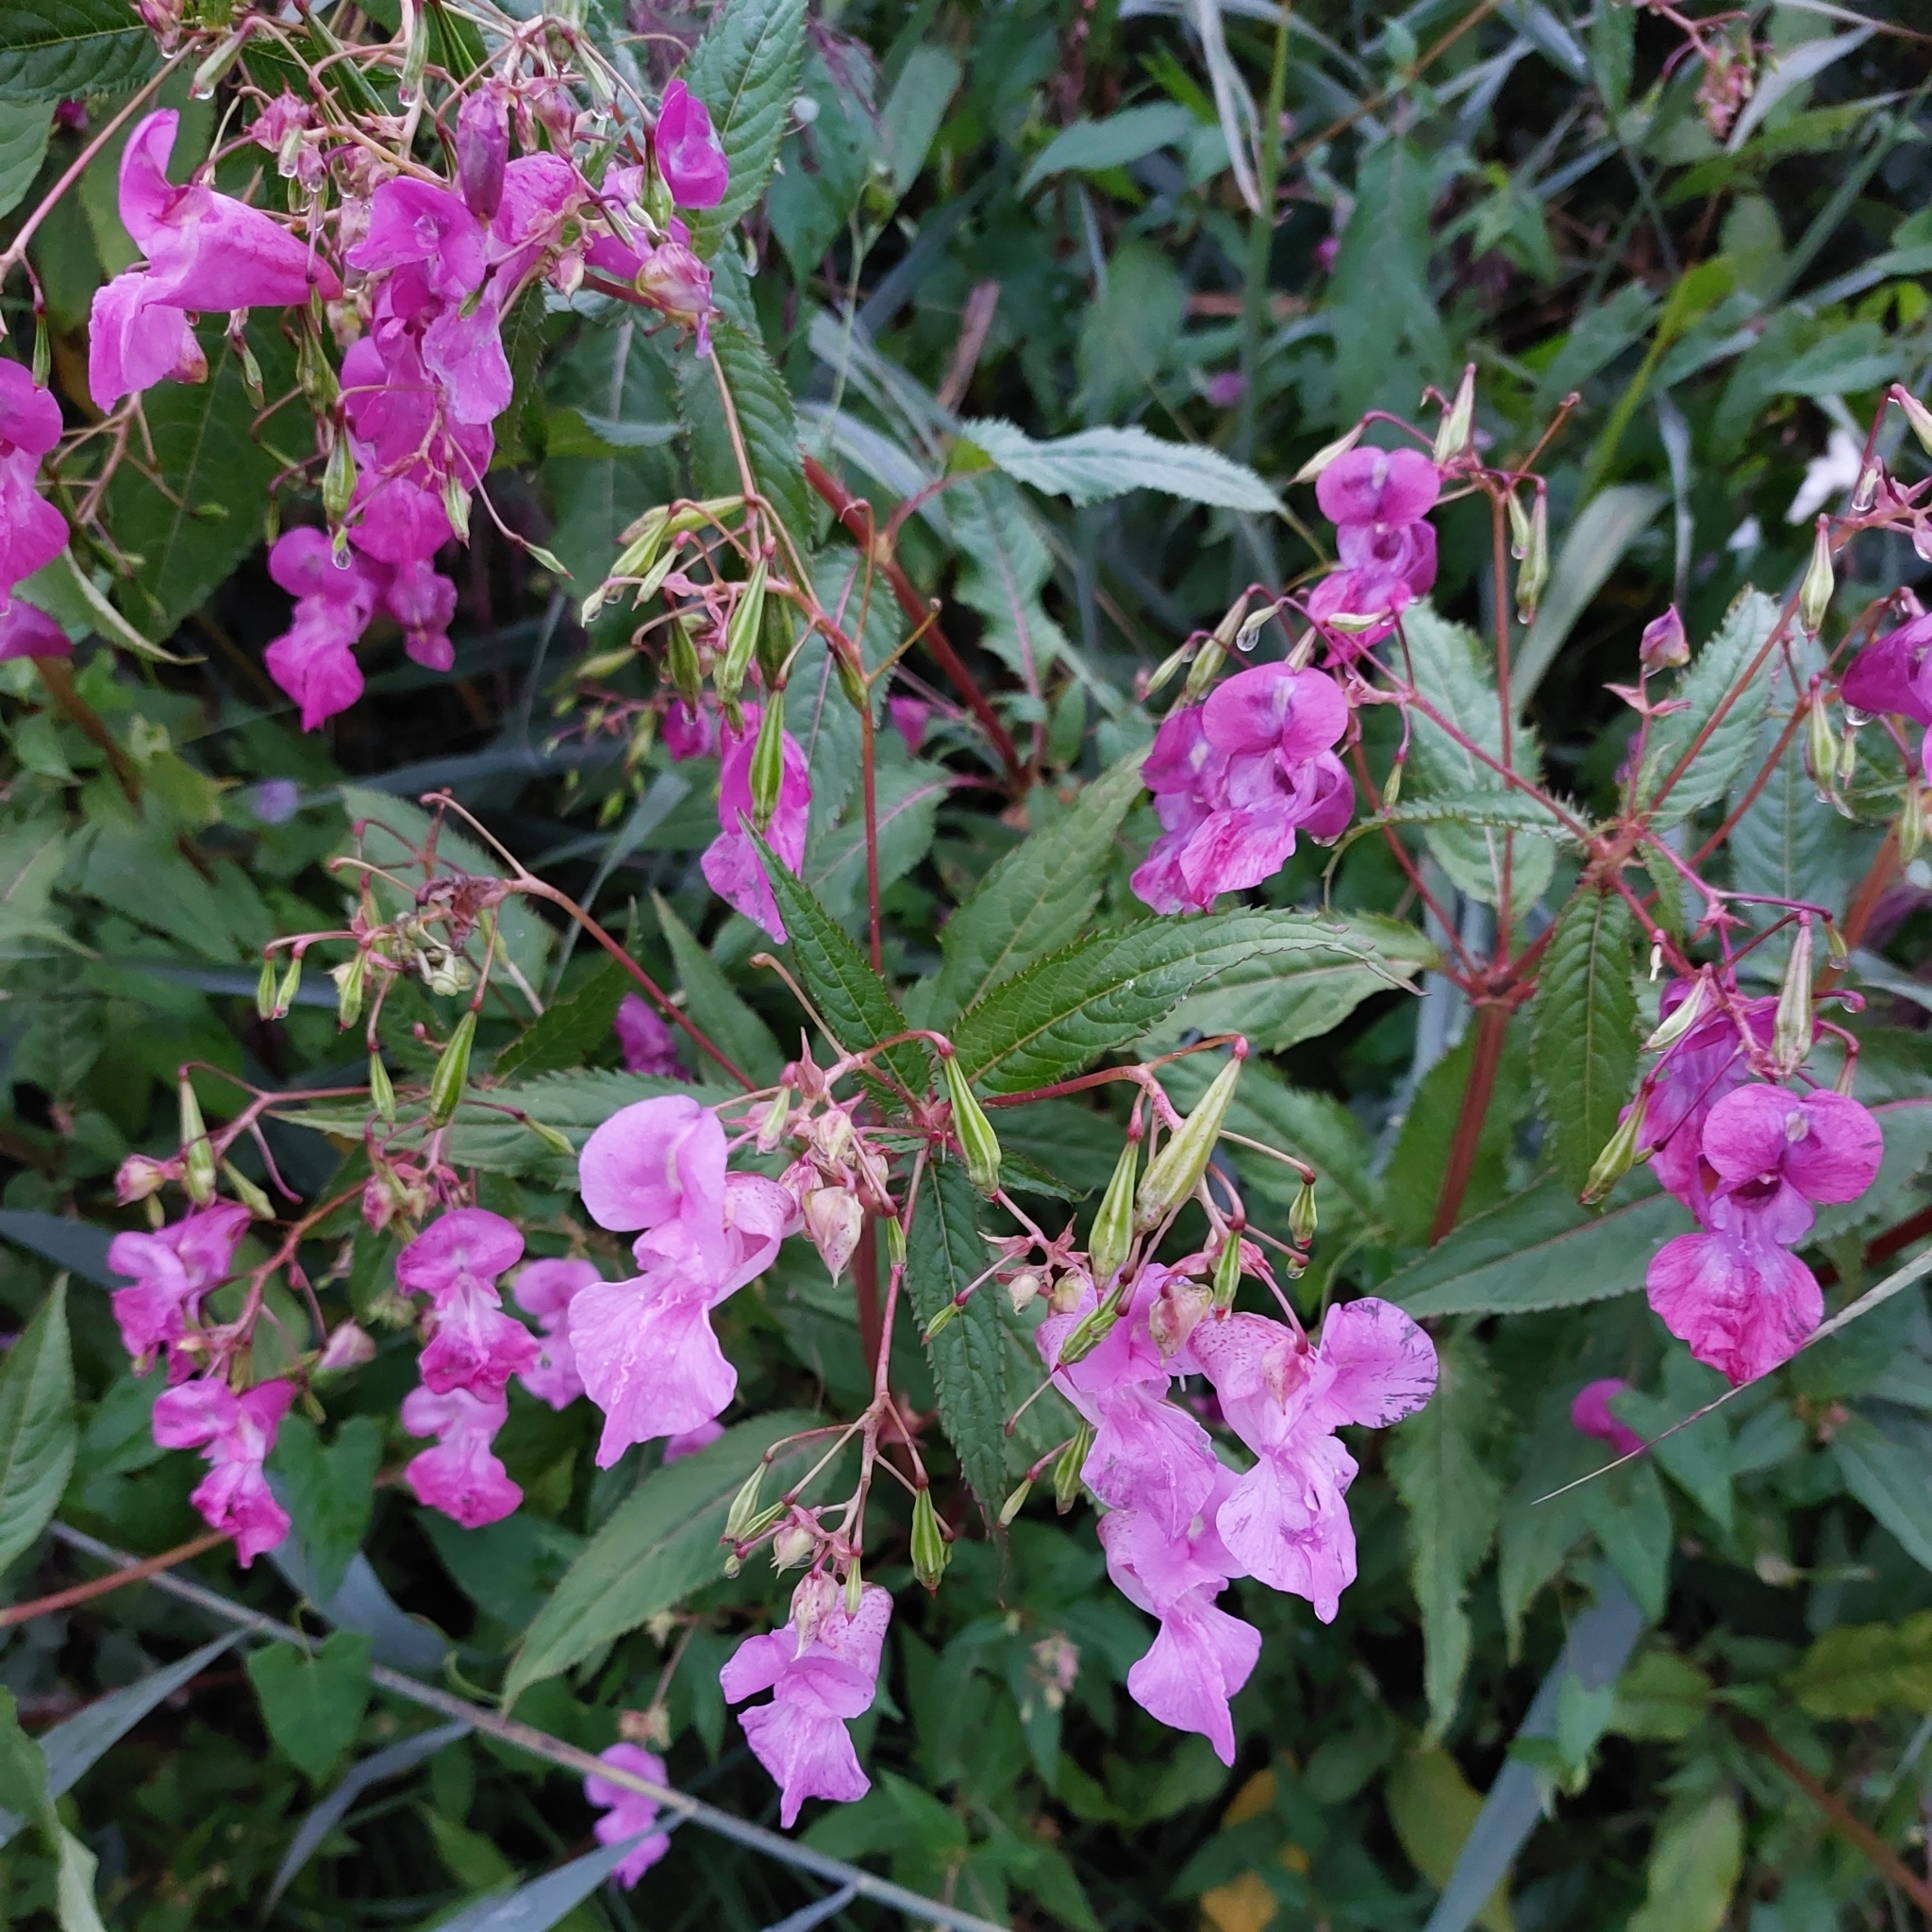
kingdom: Plantae
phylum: Tracheophyta
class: Magnoliopsida
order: Ericales
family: Balsaminaceae
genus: Impatiens
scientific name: Impatiens glandulifera
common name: Himalayan balsam
